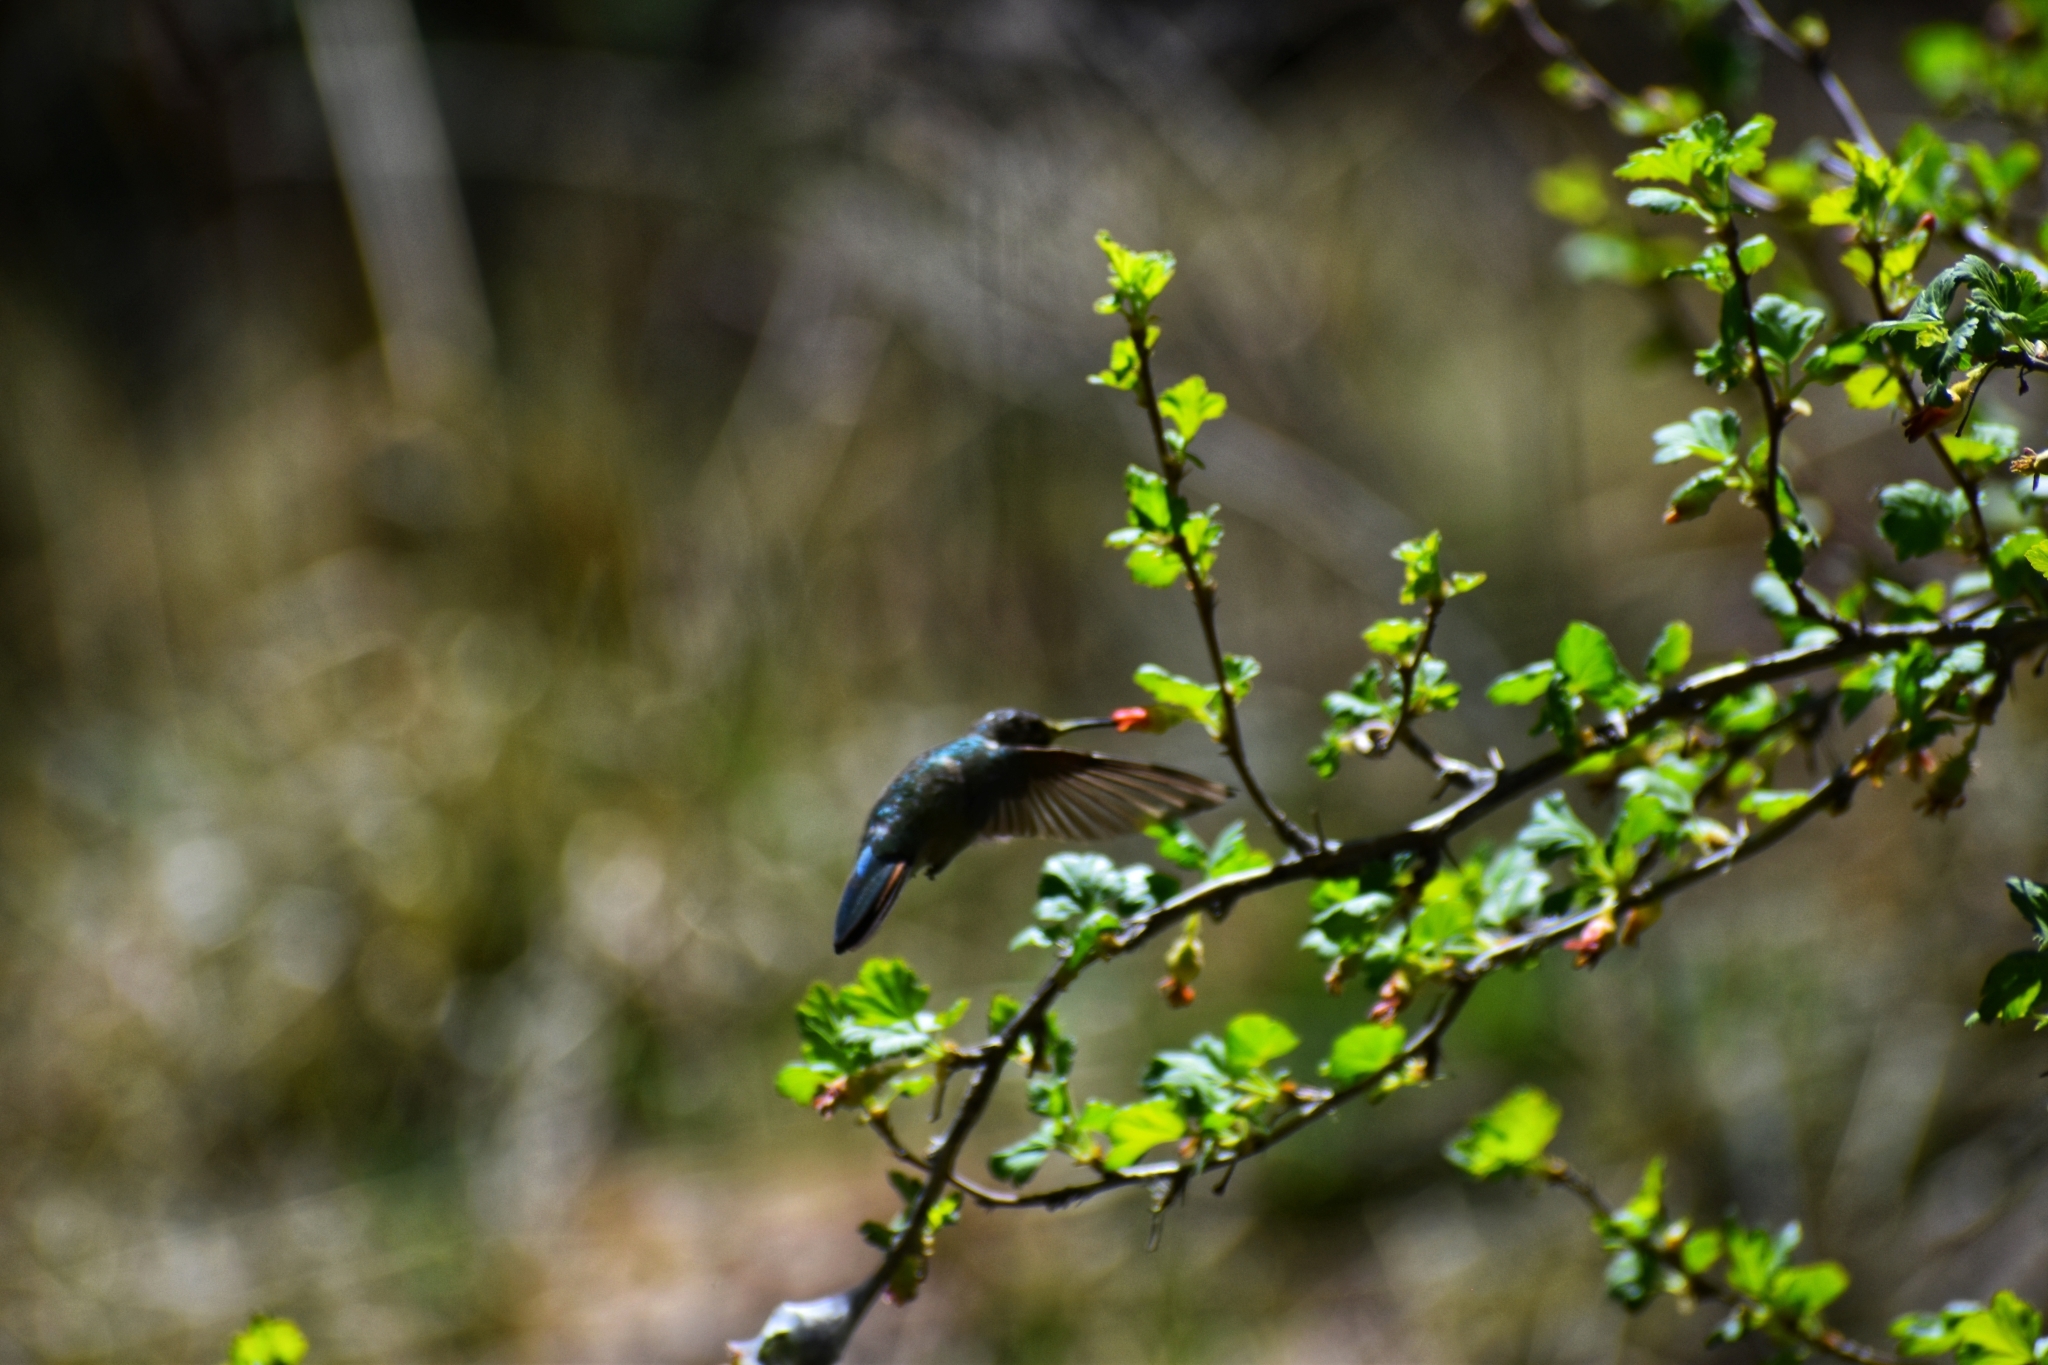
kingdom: Animalia
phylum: Chordata
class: Aves
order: Apodiformes
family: Trochilidae
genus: Selasphorus
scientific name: Selasphorus platycercus
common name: Broad-tailed hummingbird
